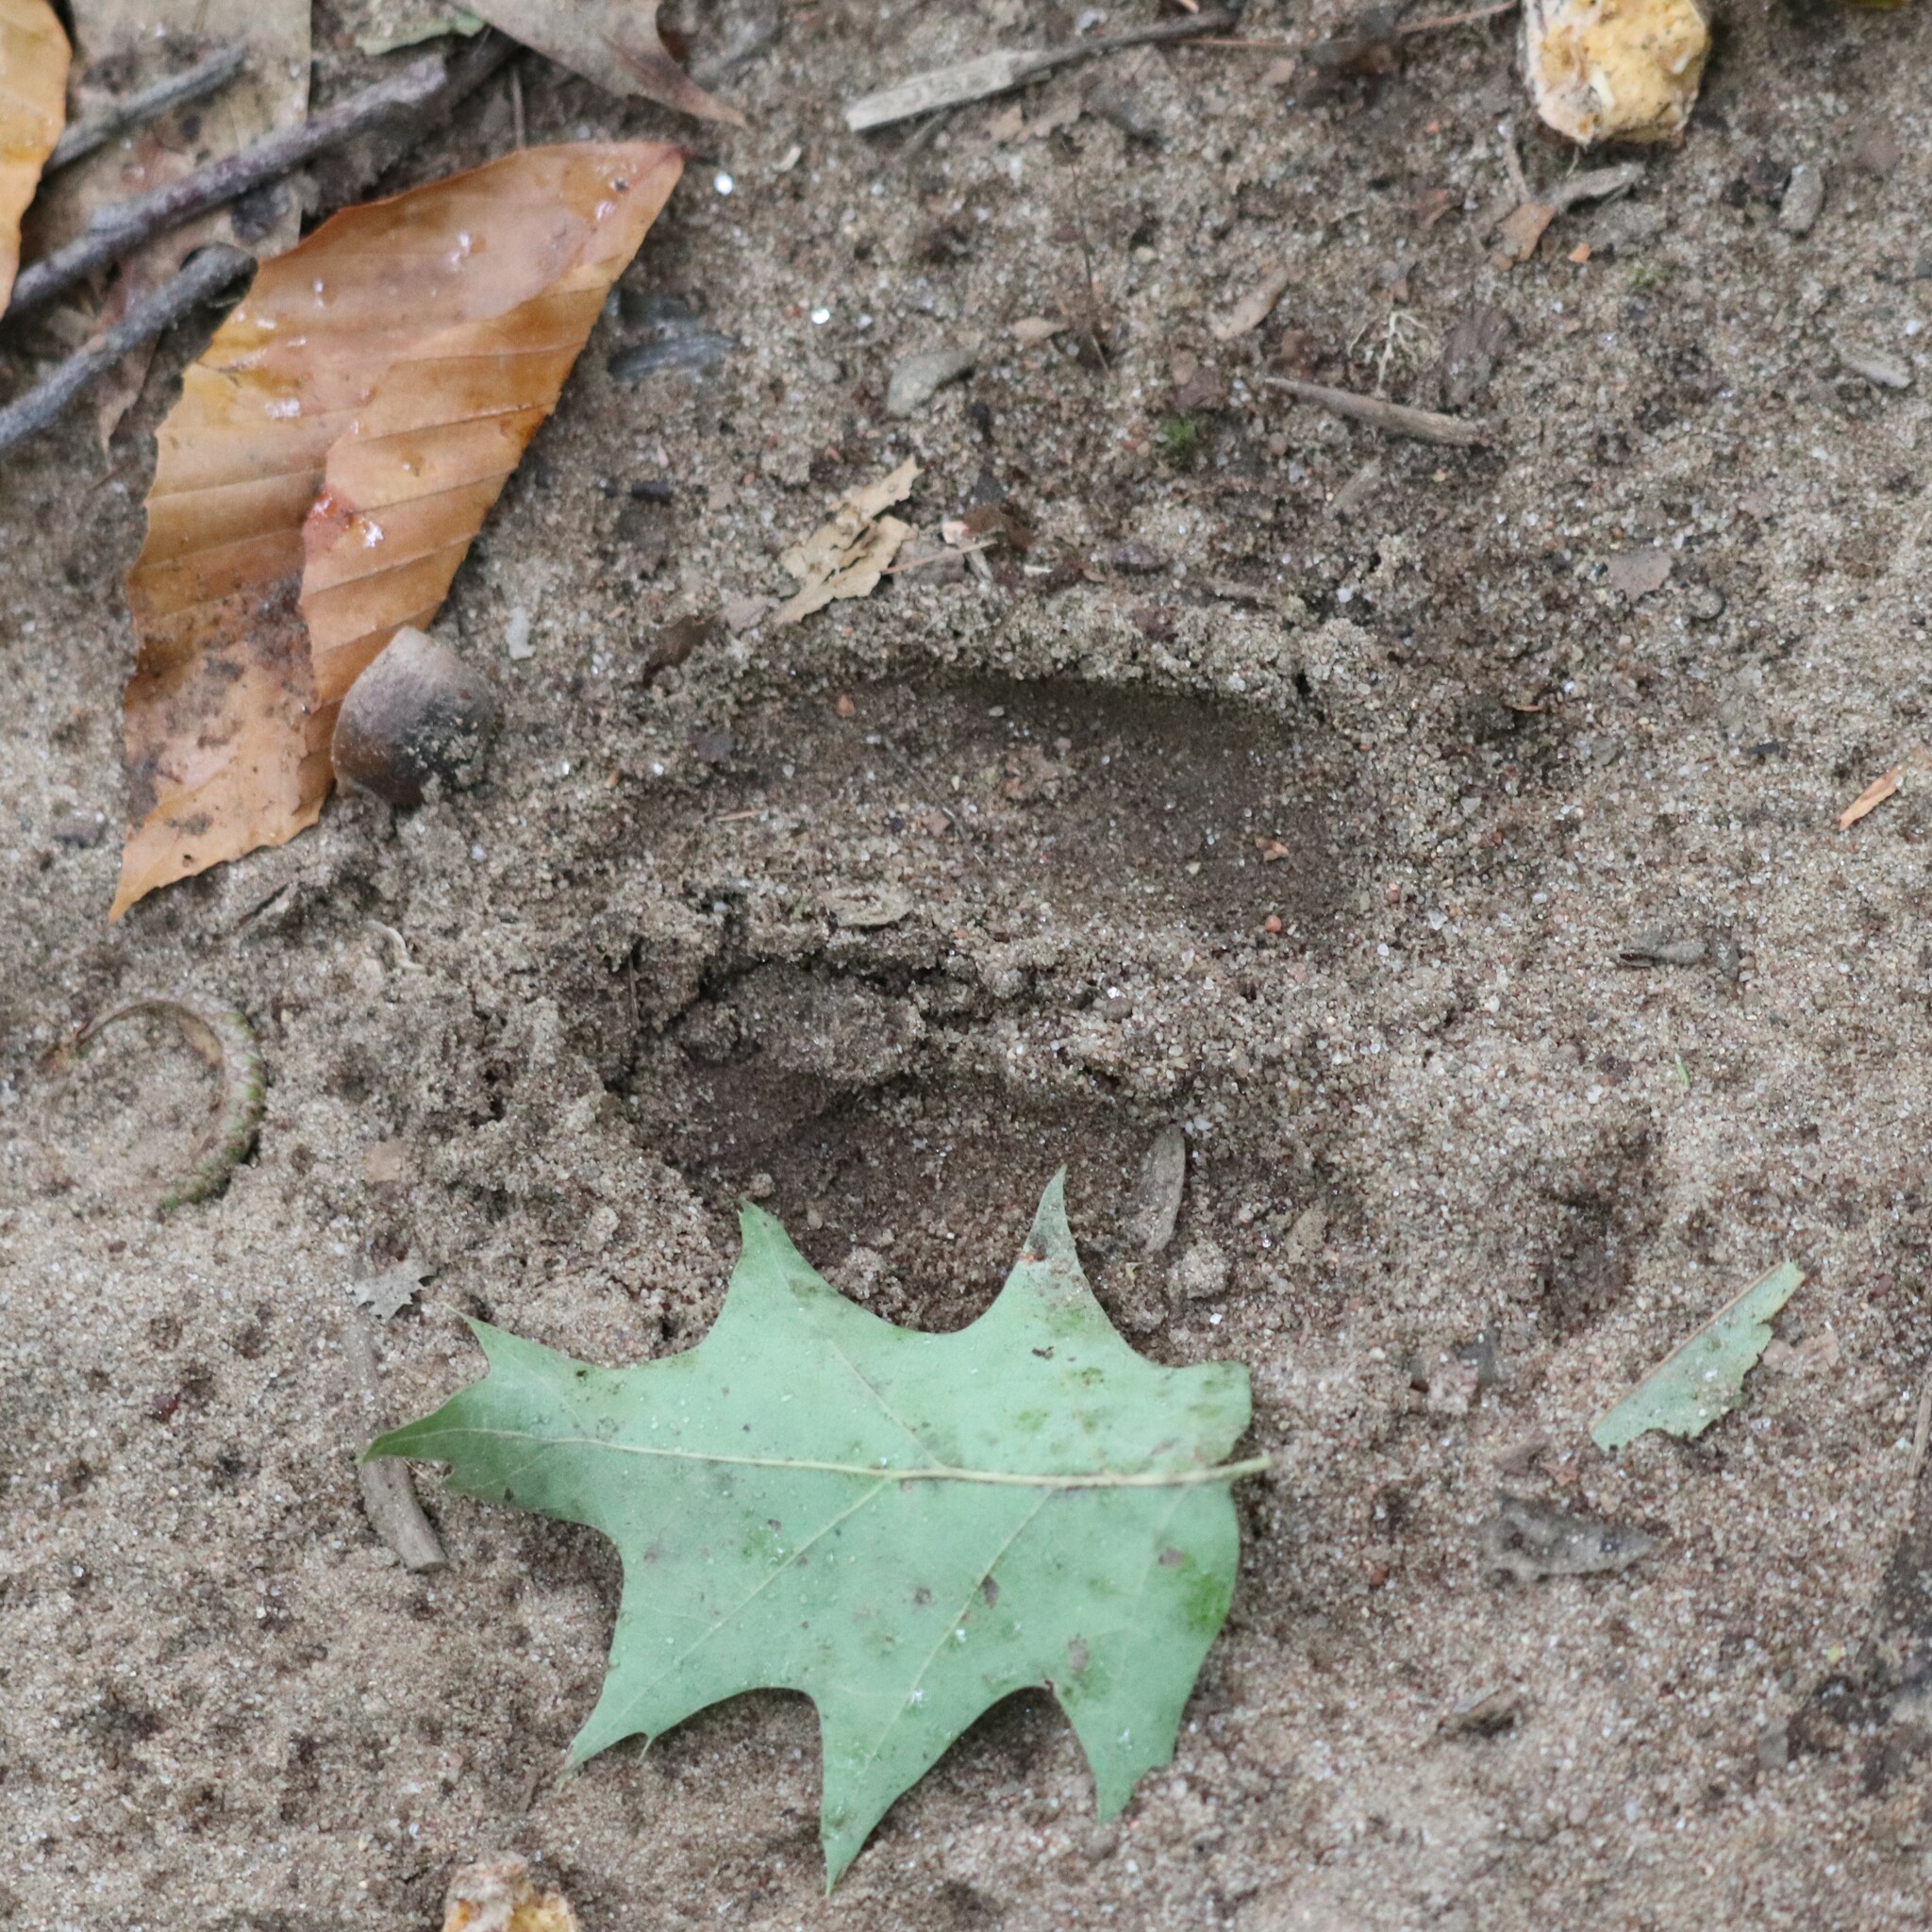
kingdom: Animalia
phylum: Chordata
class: Mammalia
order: Artiodactyla
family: Cervidae
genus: Odocoileus
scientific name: Odocoileus virginianus
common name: White-tailed deer
